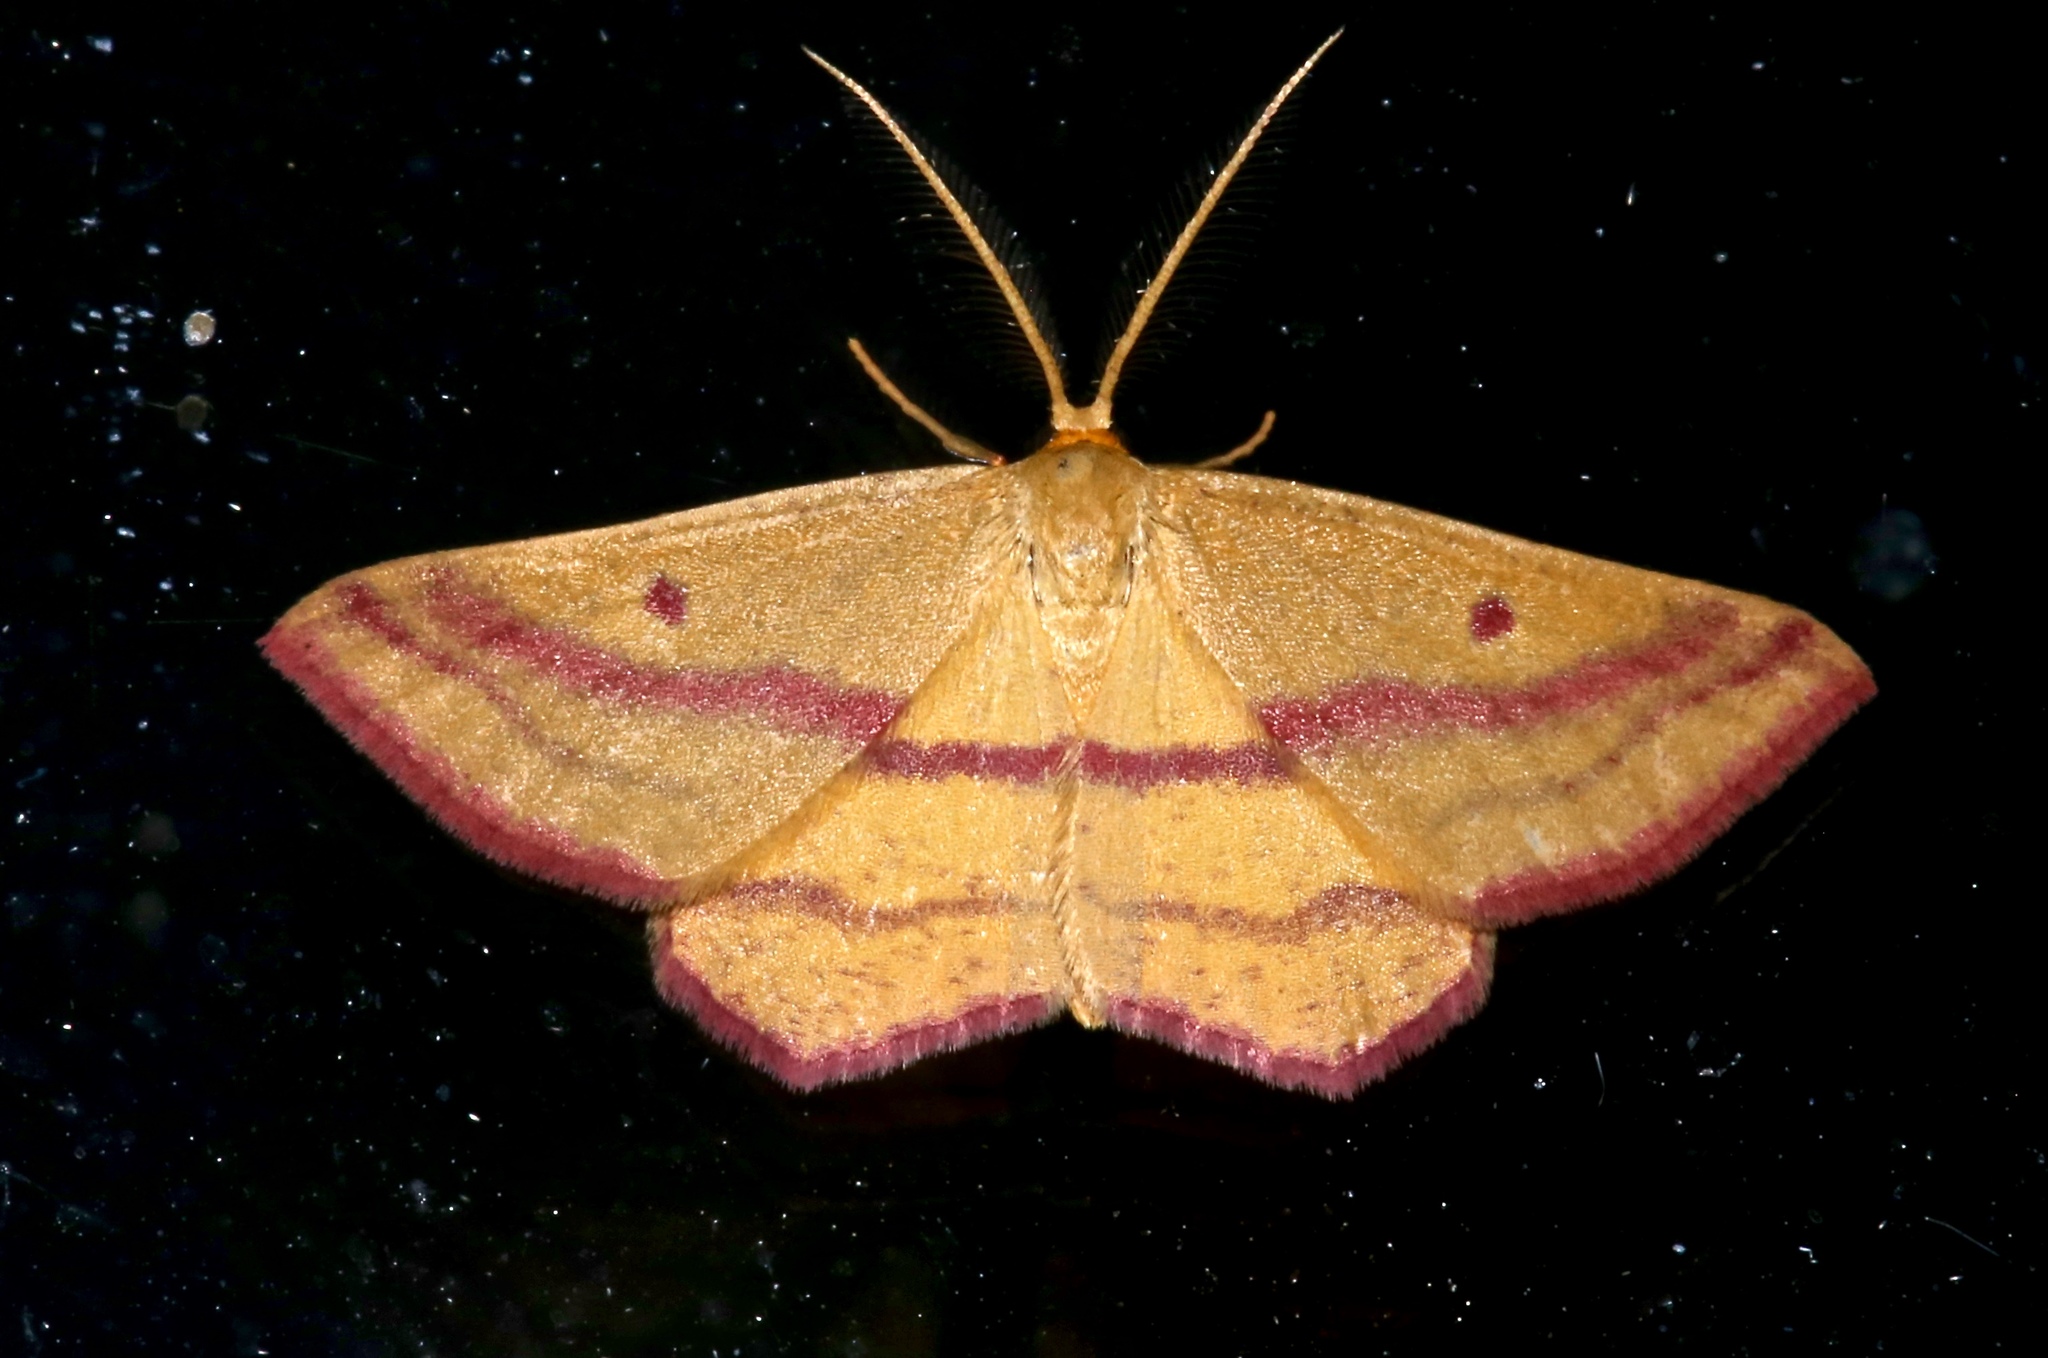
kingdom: Animalia
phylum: Arthropoda
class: Insecta
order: Lepidoptera
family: Geometridae
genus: Haematopis
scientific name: Haematopis grataria
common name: Chickweed geometer
